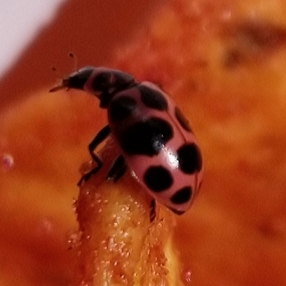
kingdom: Animalia
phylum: Arthropoda
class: Insecta
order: Coleoptera
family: Coccinellidae
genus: Coleomegilla
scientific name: Coleomegilla maculata
